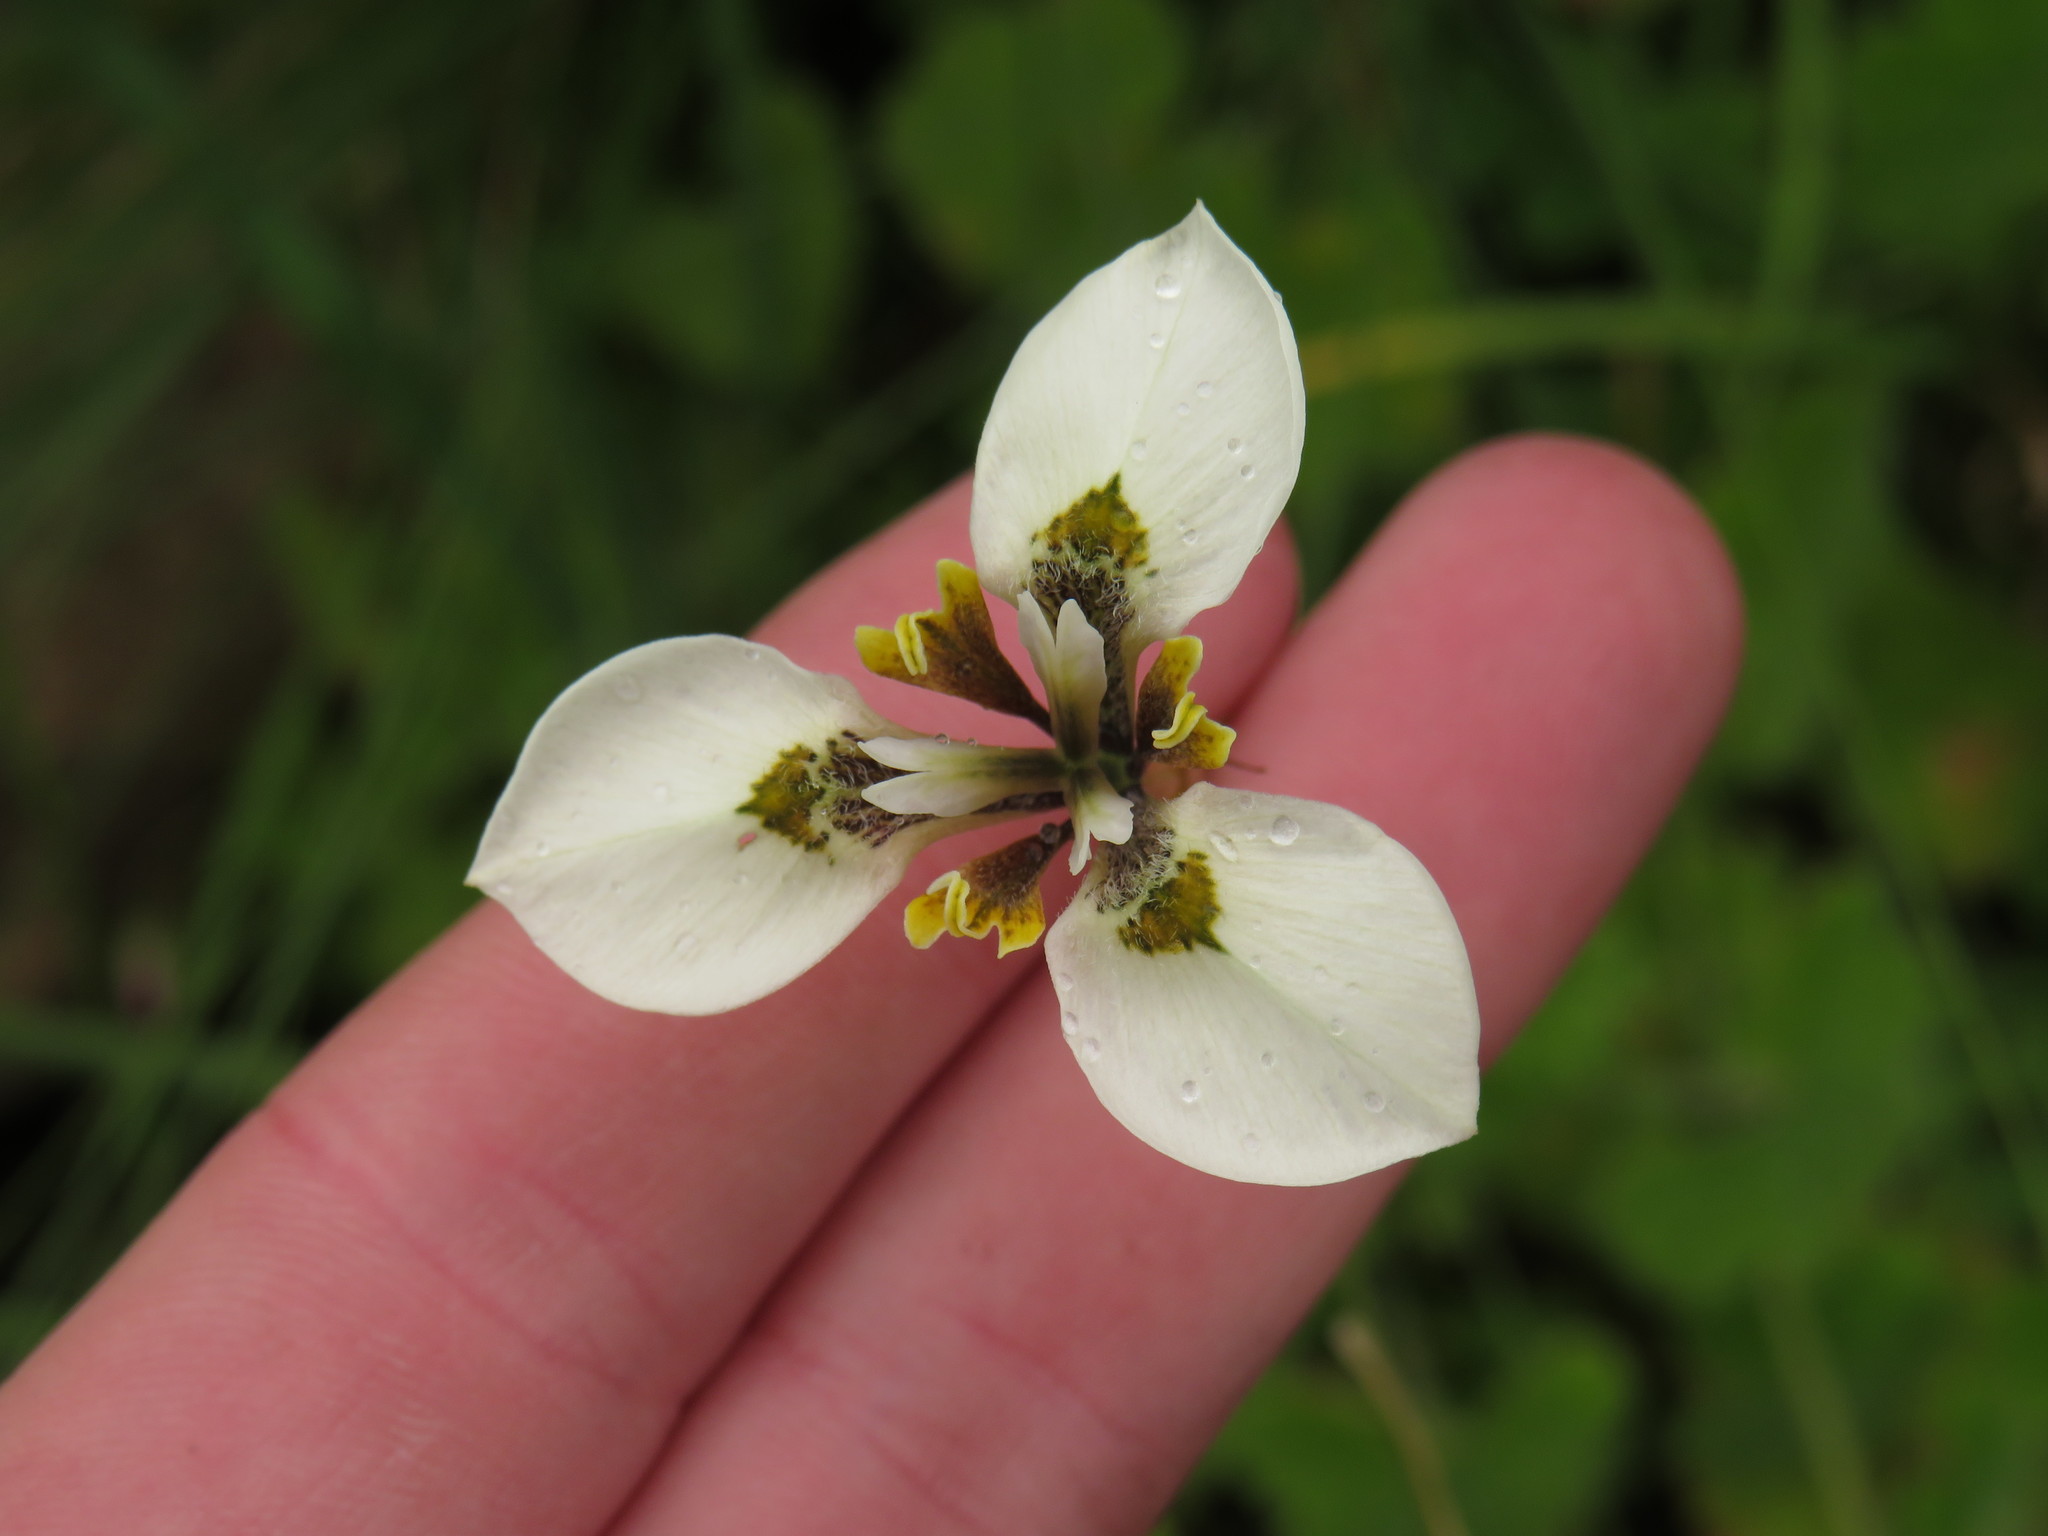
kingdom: Plantae
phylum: Tracheophyta
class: Liliopsida
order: Asparagales
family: Iridaceae
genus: Moraea
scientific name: Moraea tricuspidata
